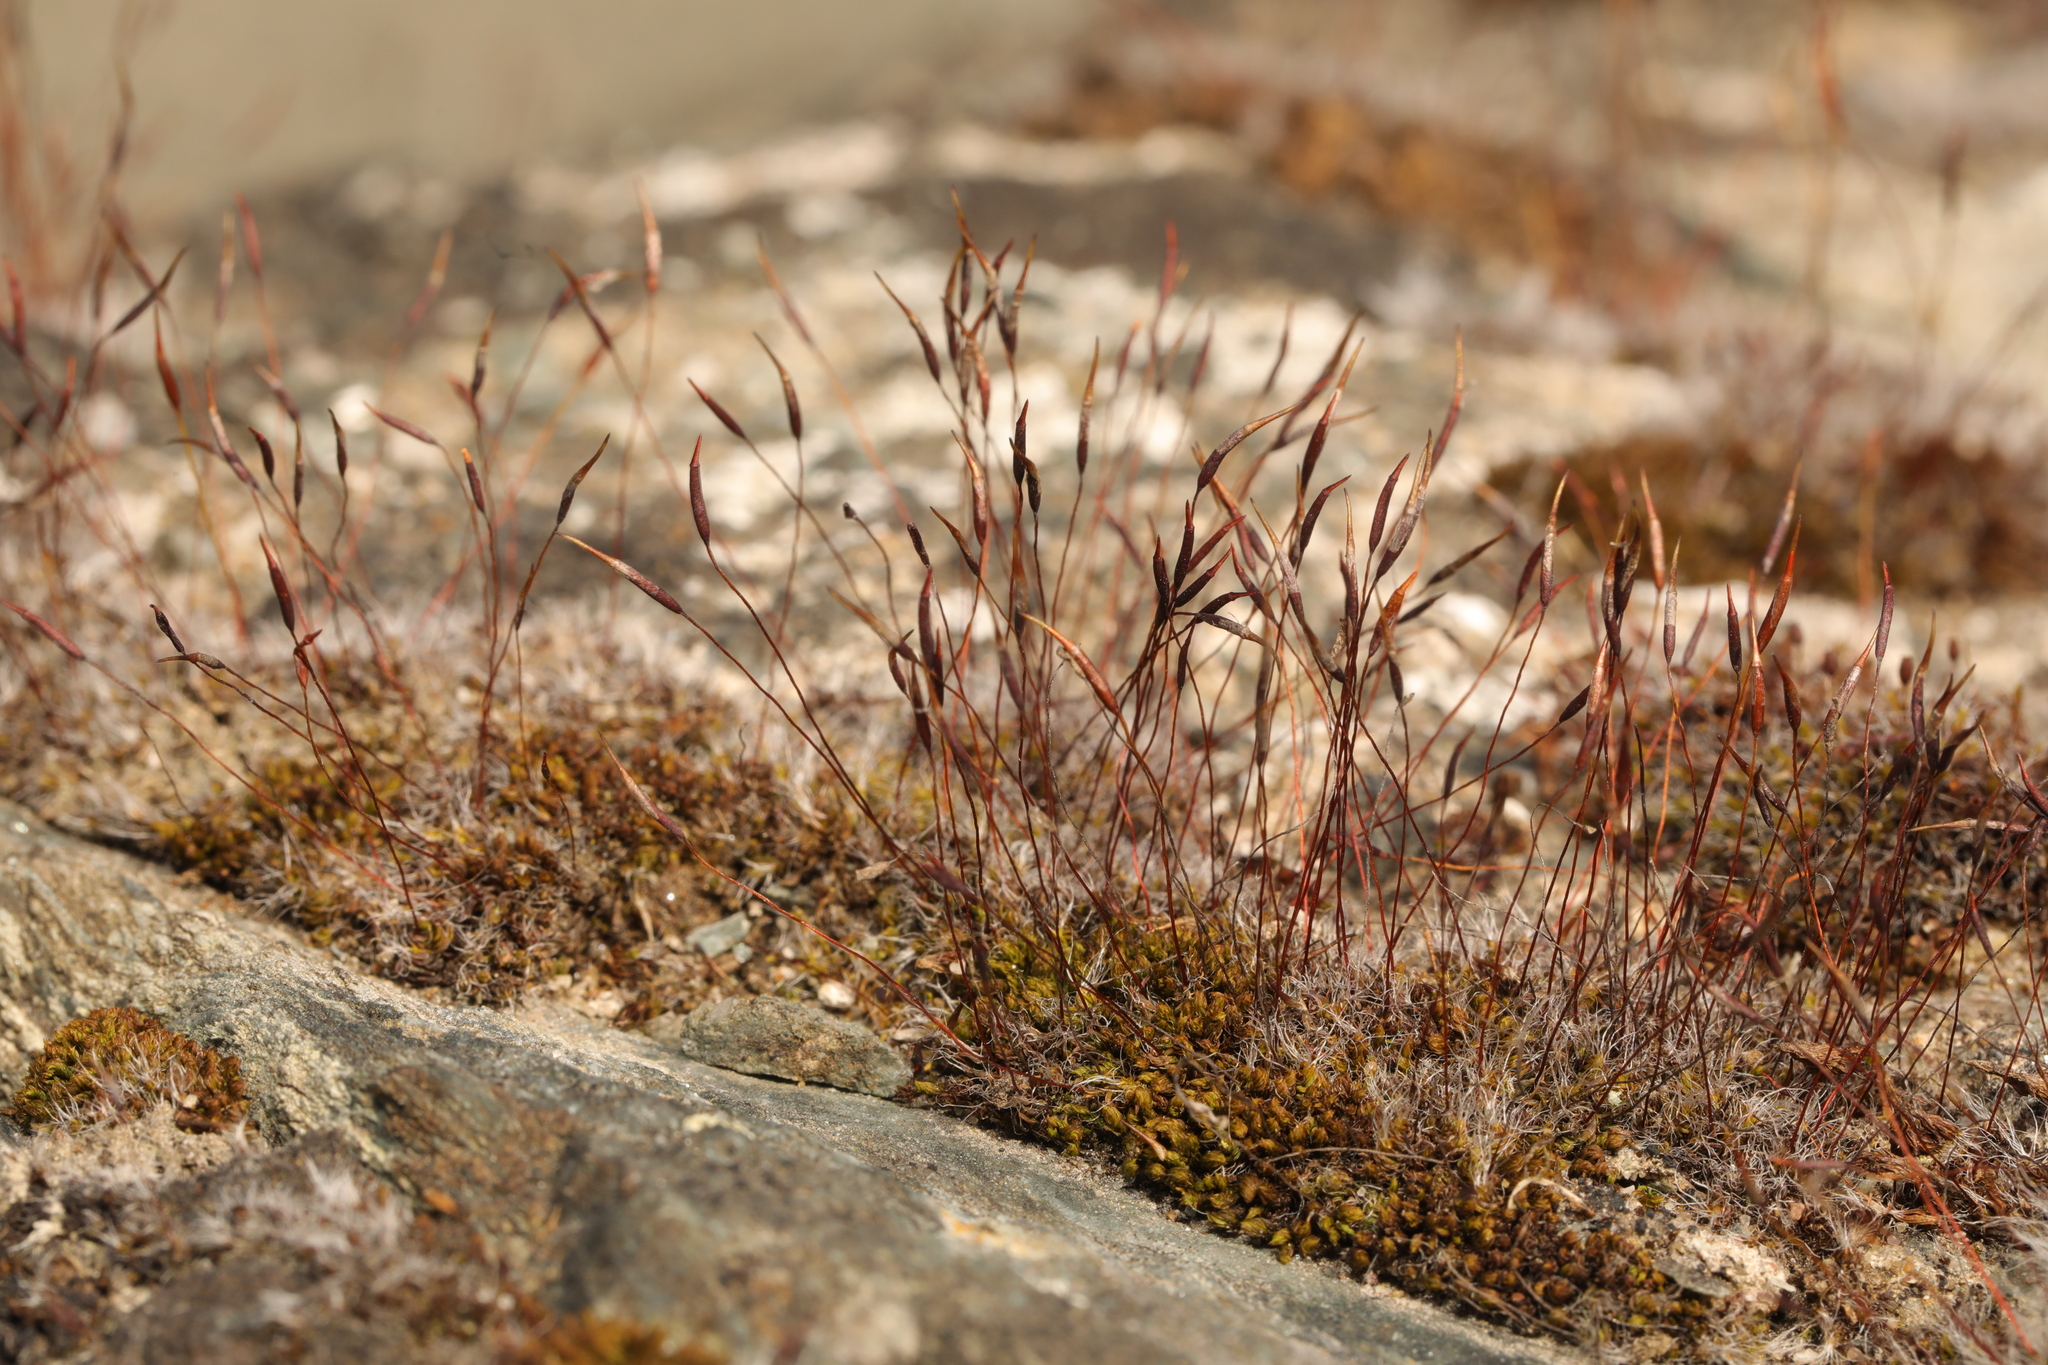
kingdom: Plantae
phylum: Bryophyta
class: Bryopsida
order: Pottiales
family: Pottiaceae
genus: Tortula
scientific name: Tortula muralis
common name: Wall screw-moss
